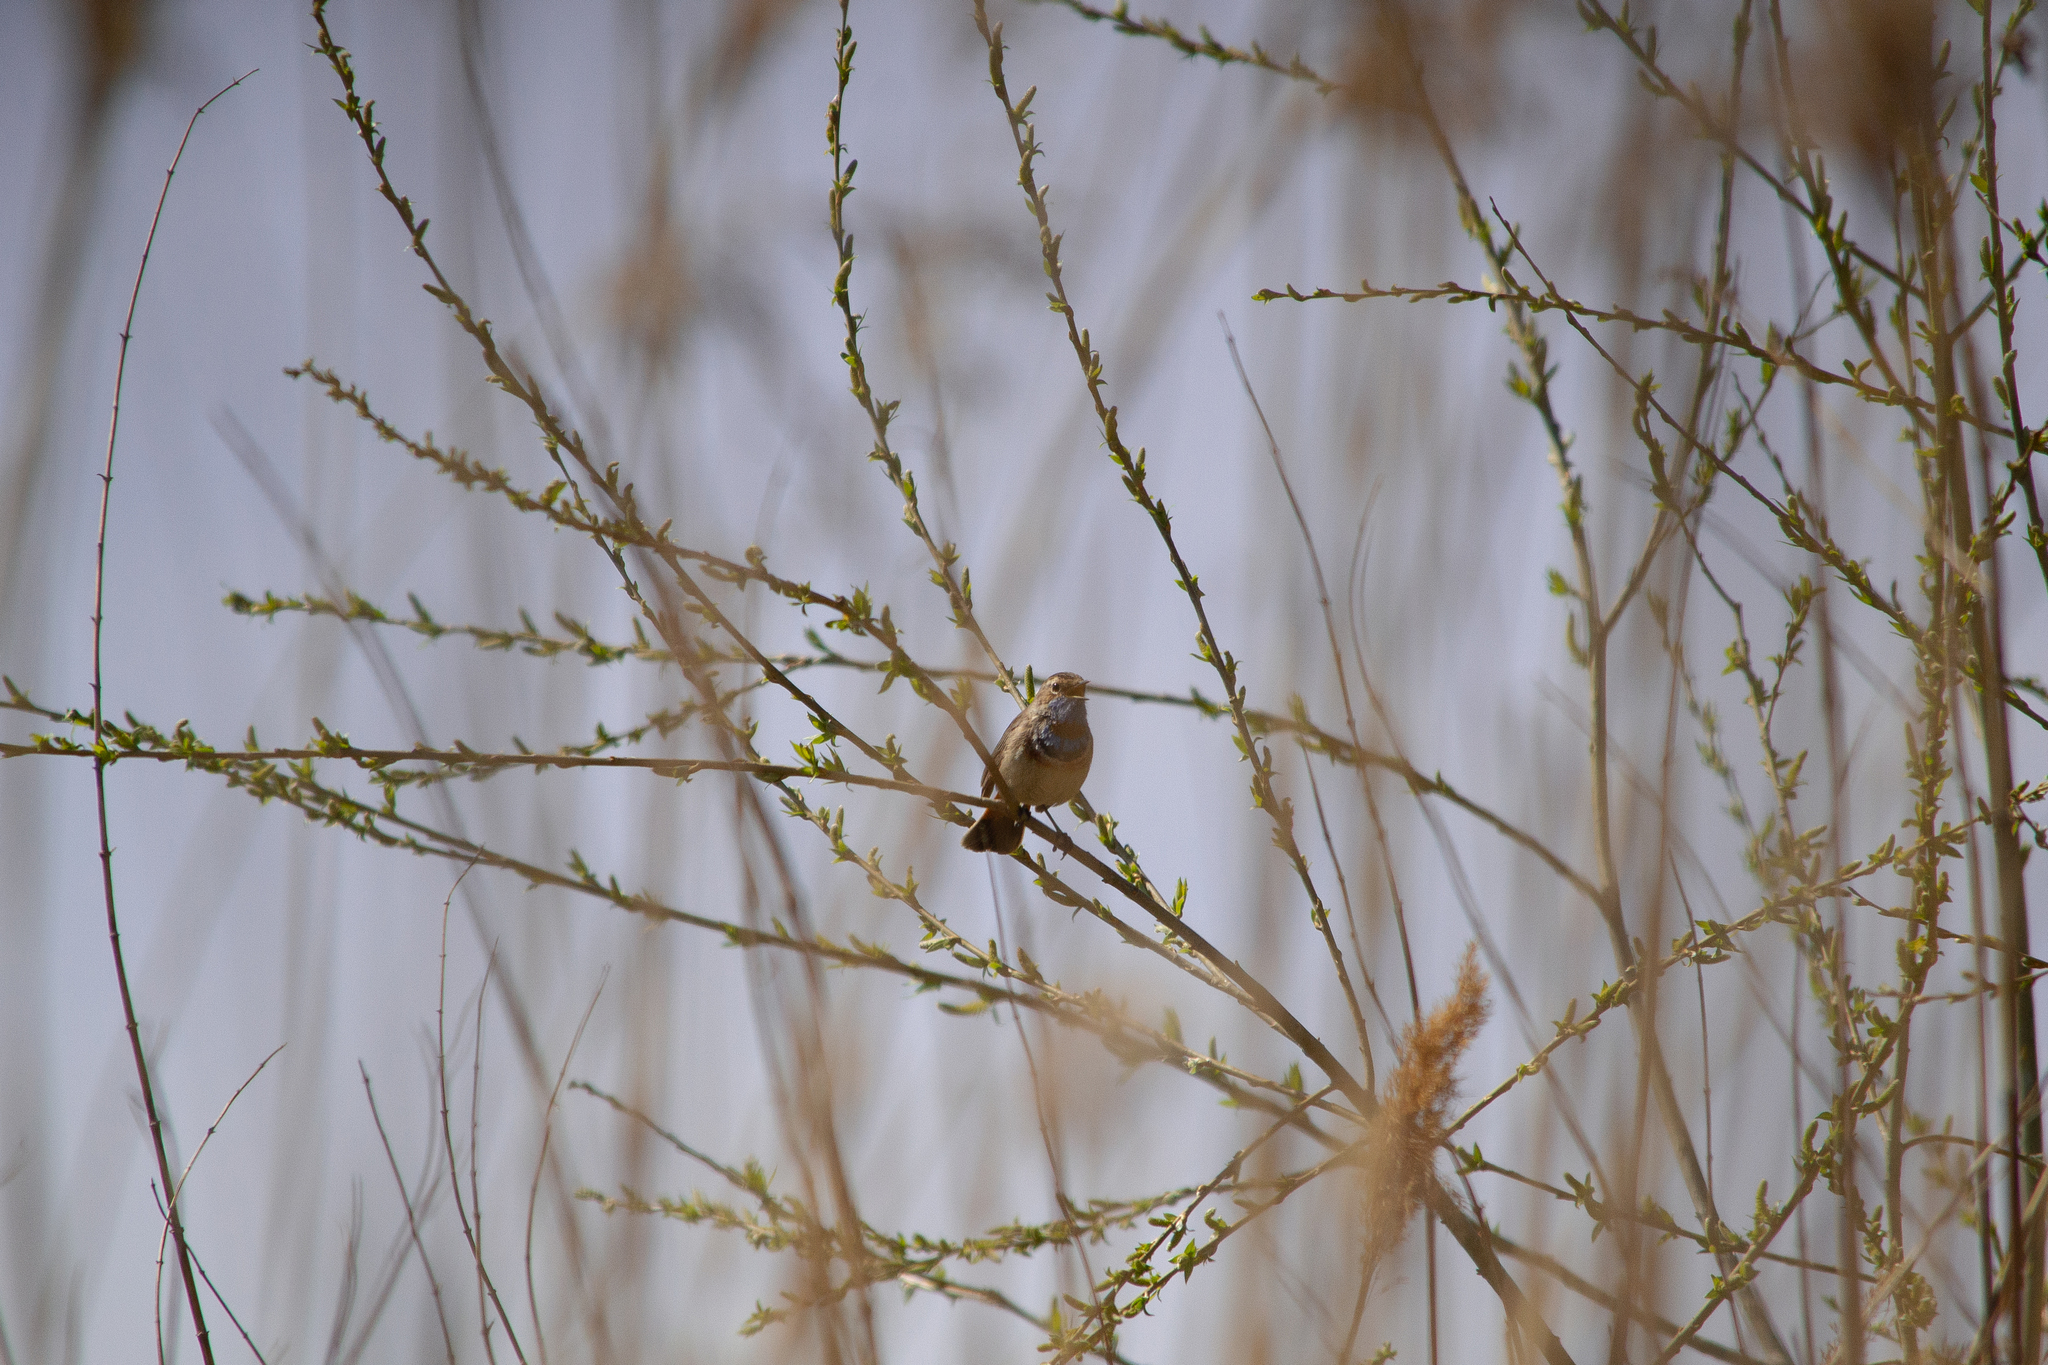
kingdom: Animalia
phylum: Chordata
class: Aves
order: Passeriformes
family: Muscicapidae
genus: Luscinia
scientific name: Luscinia svecica
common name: Bluethroat
